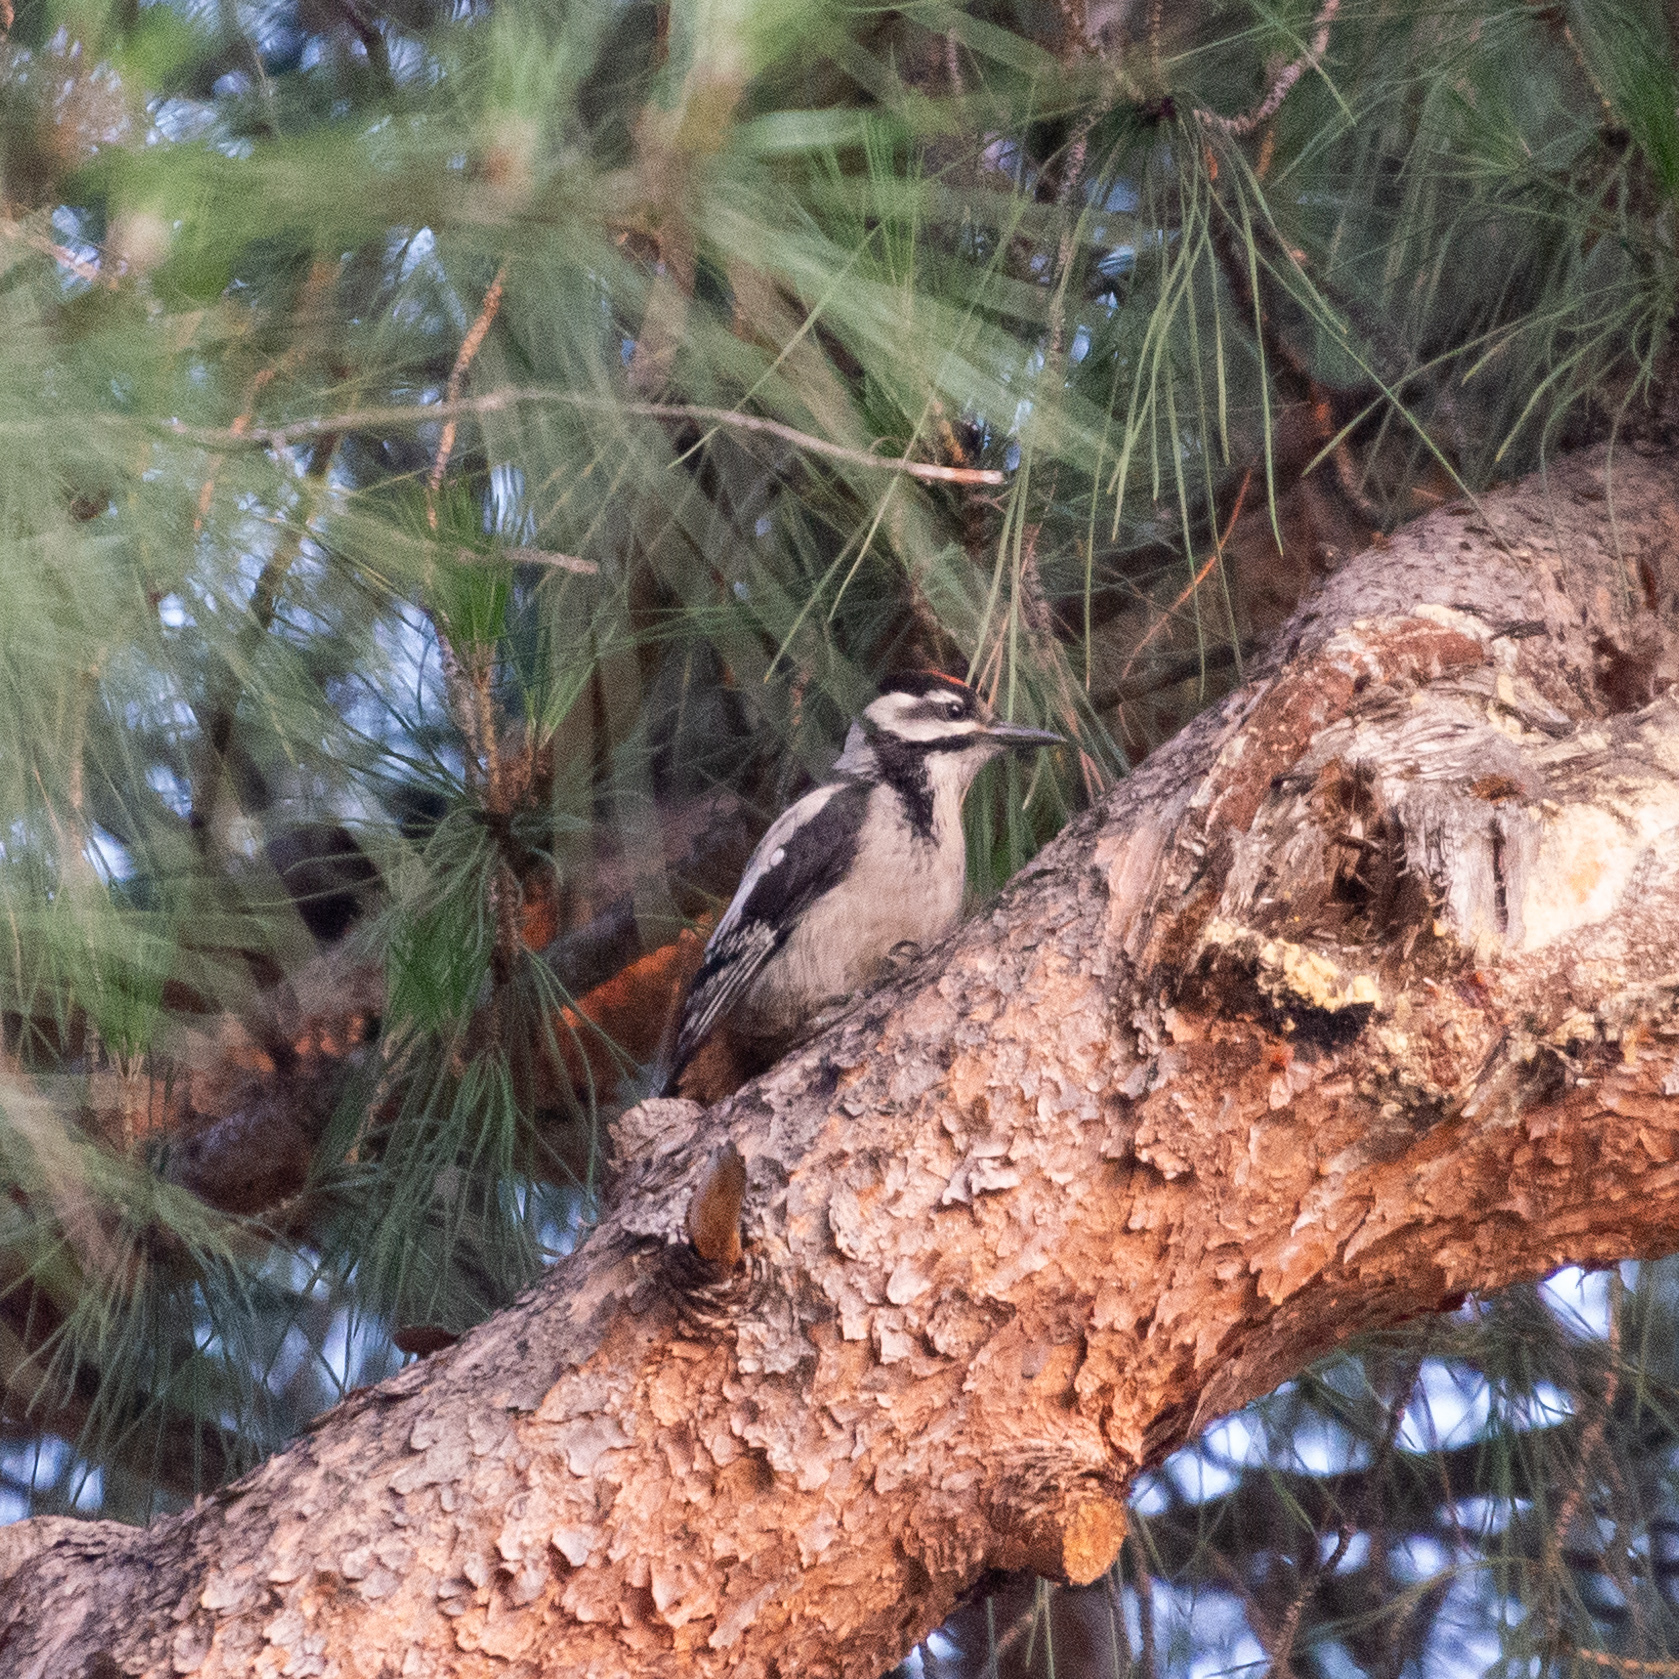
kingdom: Animalia
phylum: Chordata
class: Aves
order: Piciformes
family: Picidae
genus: Dendrocopos
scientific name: Dendrocopos major
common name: Great spotted woodpecker
